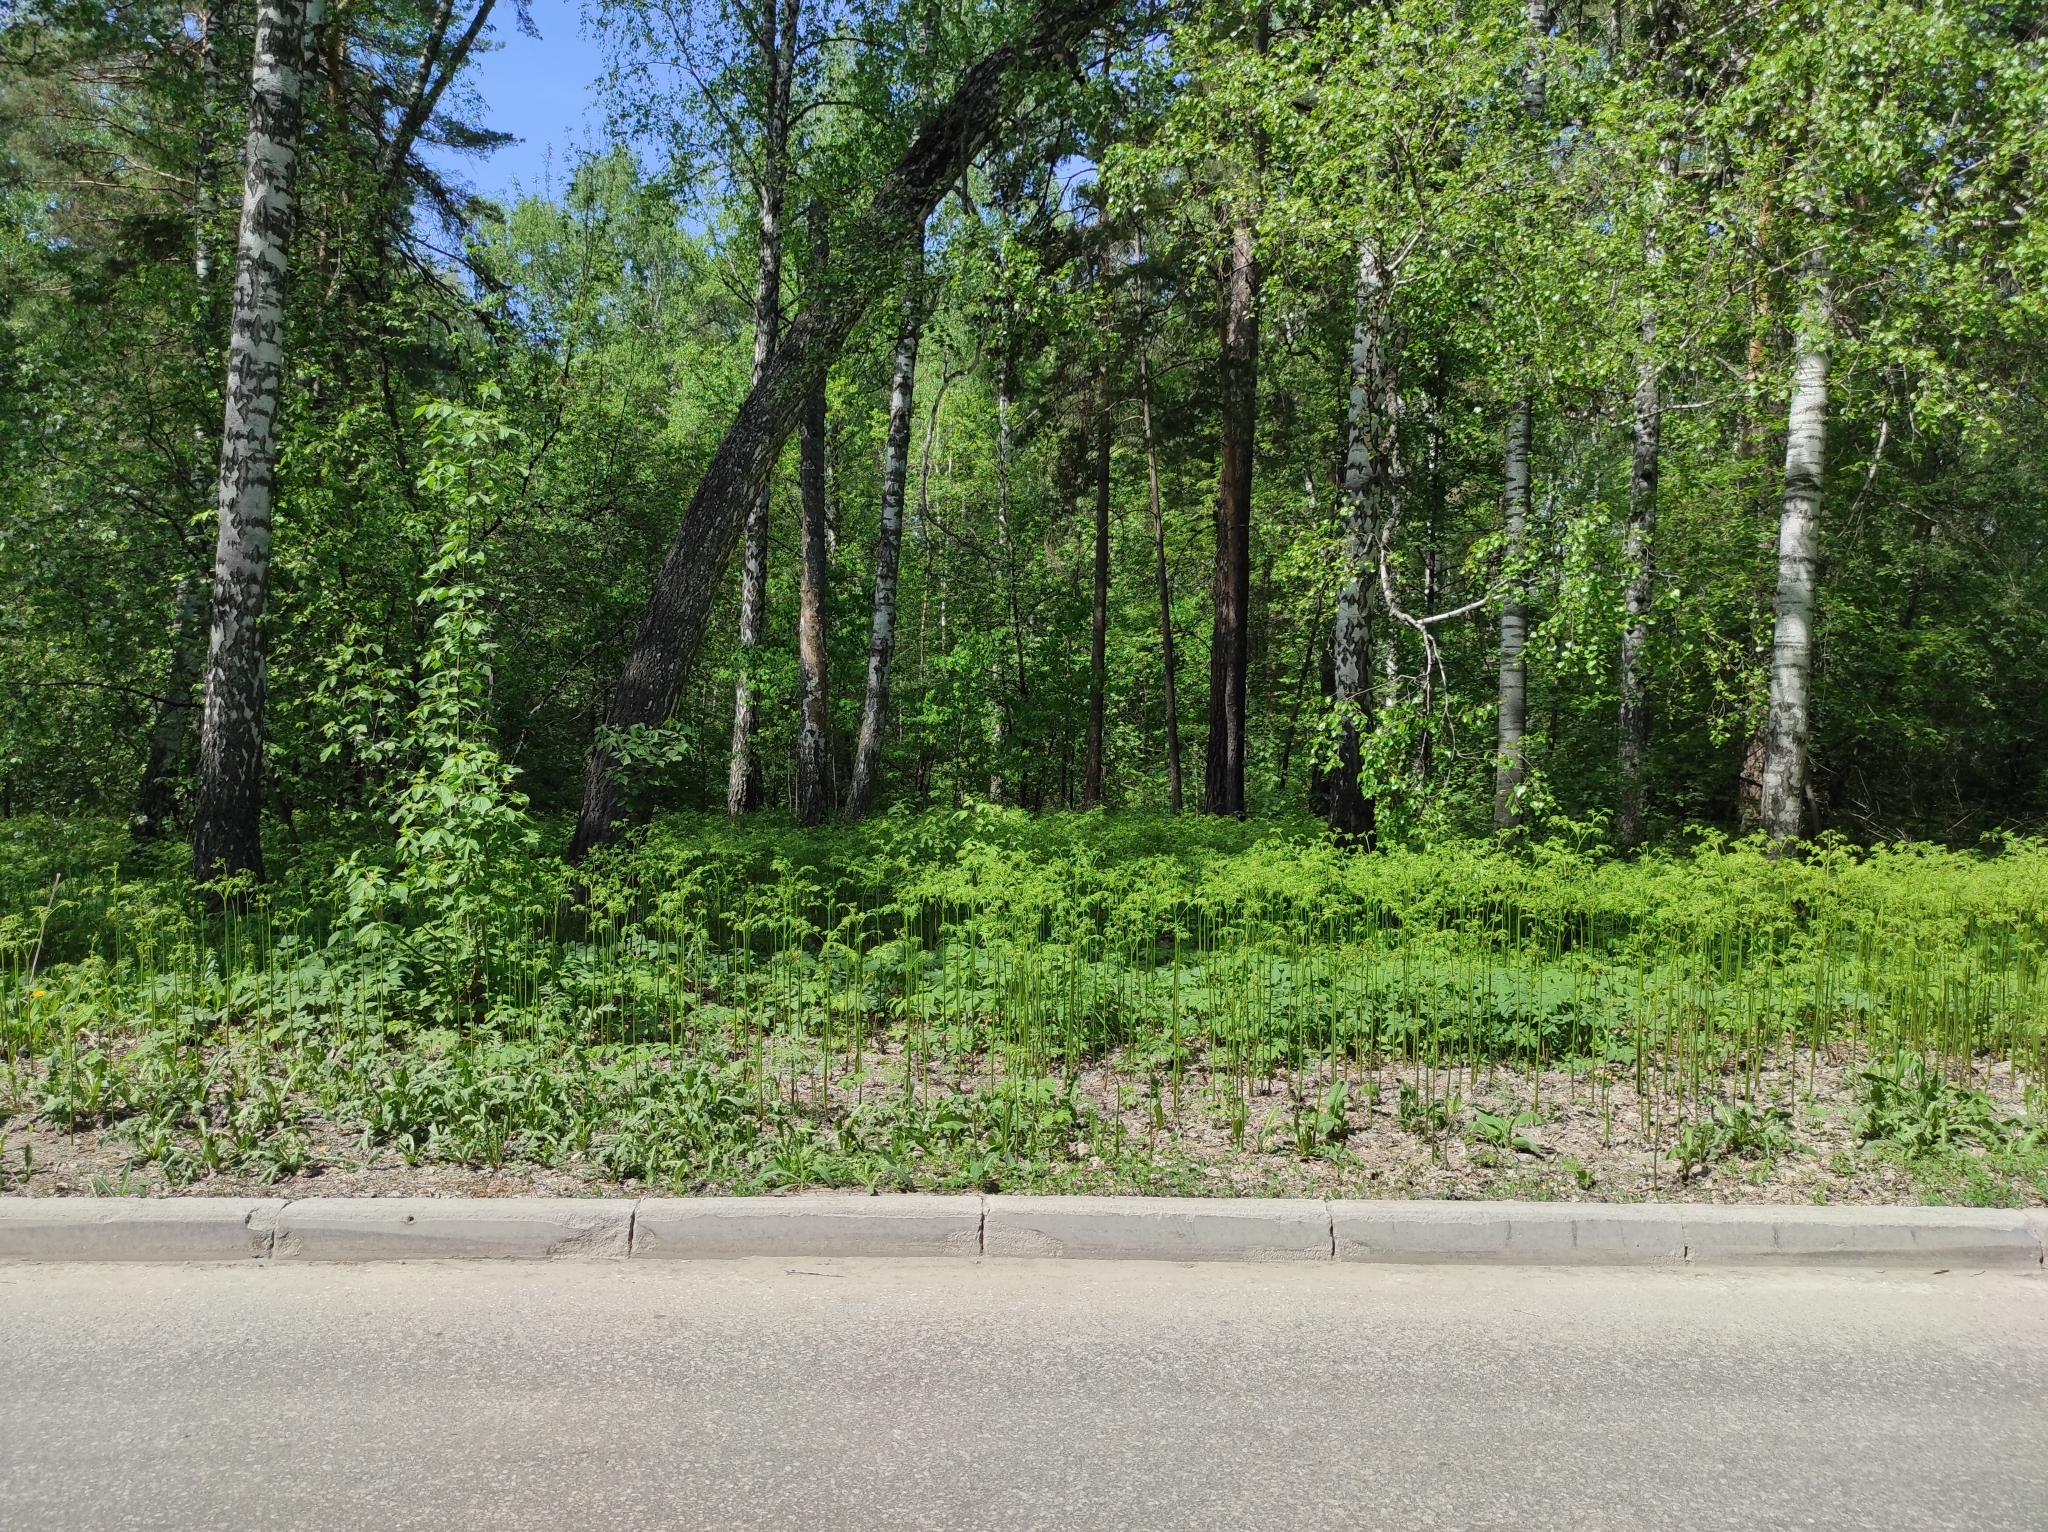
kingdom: Plantae
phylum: Tracheophyta
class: Pinopsida
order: Pinales
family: Pinaceae
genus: Pinus
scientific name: Pinus sylvestris
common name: Scots pine
